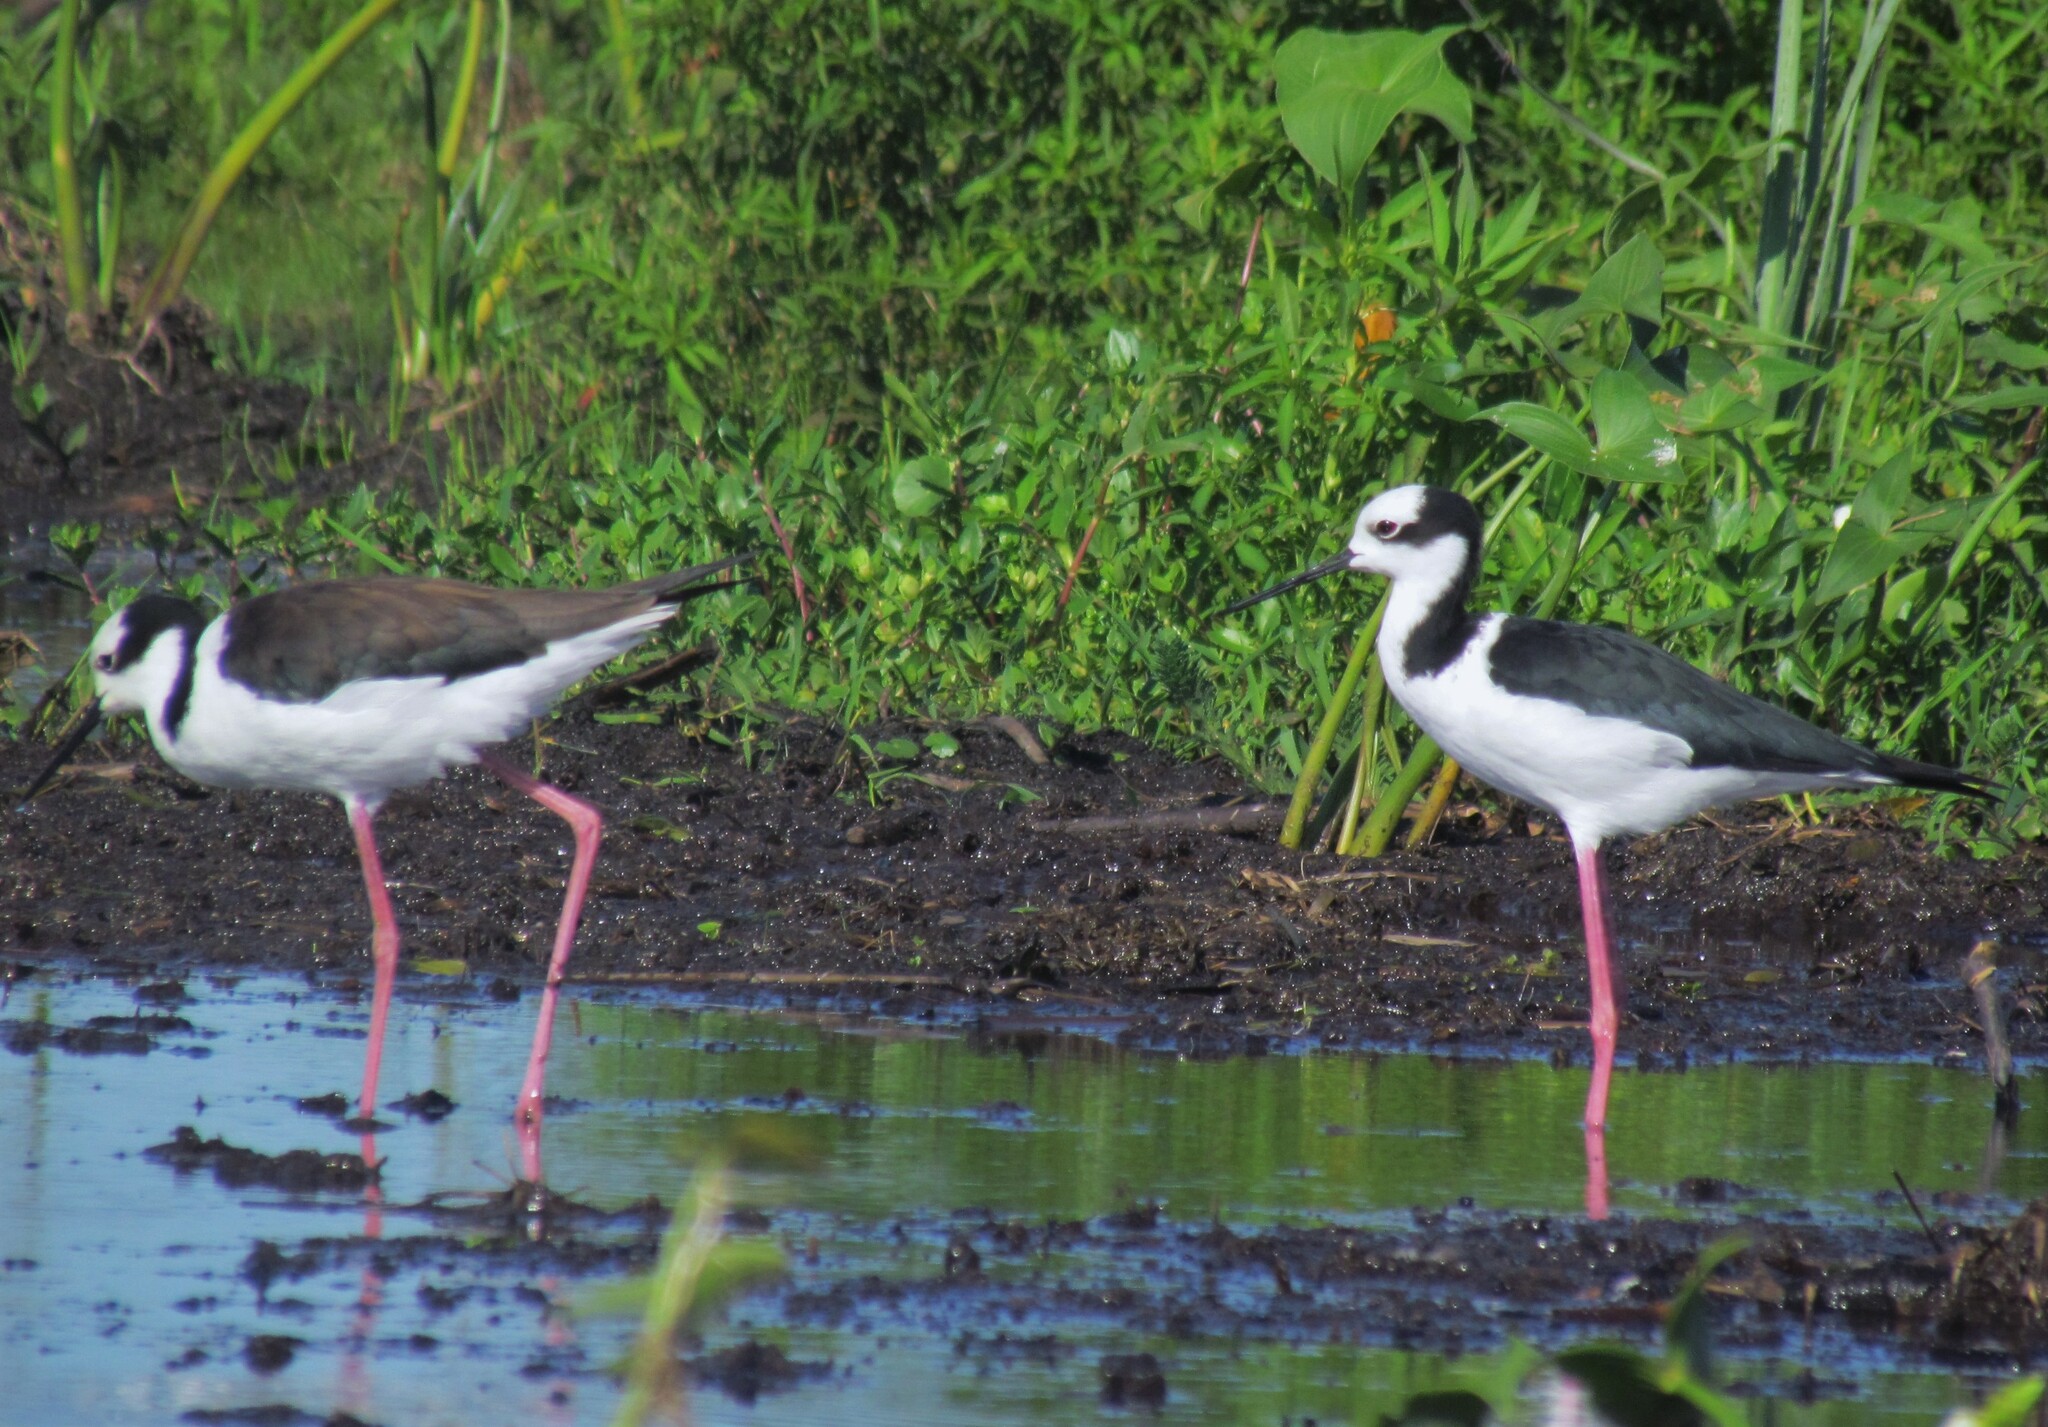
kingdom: Animalia
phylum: Chordata
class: Aves
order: Charadriiformes
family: Recurvirostridae
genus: Himantopus
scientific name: Himantopus mexicanus
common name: Black-necked stilt
